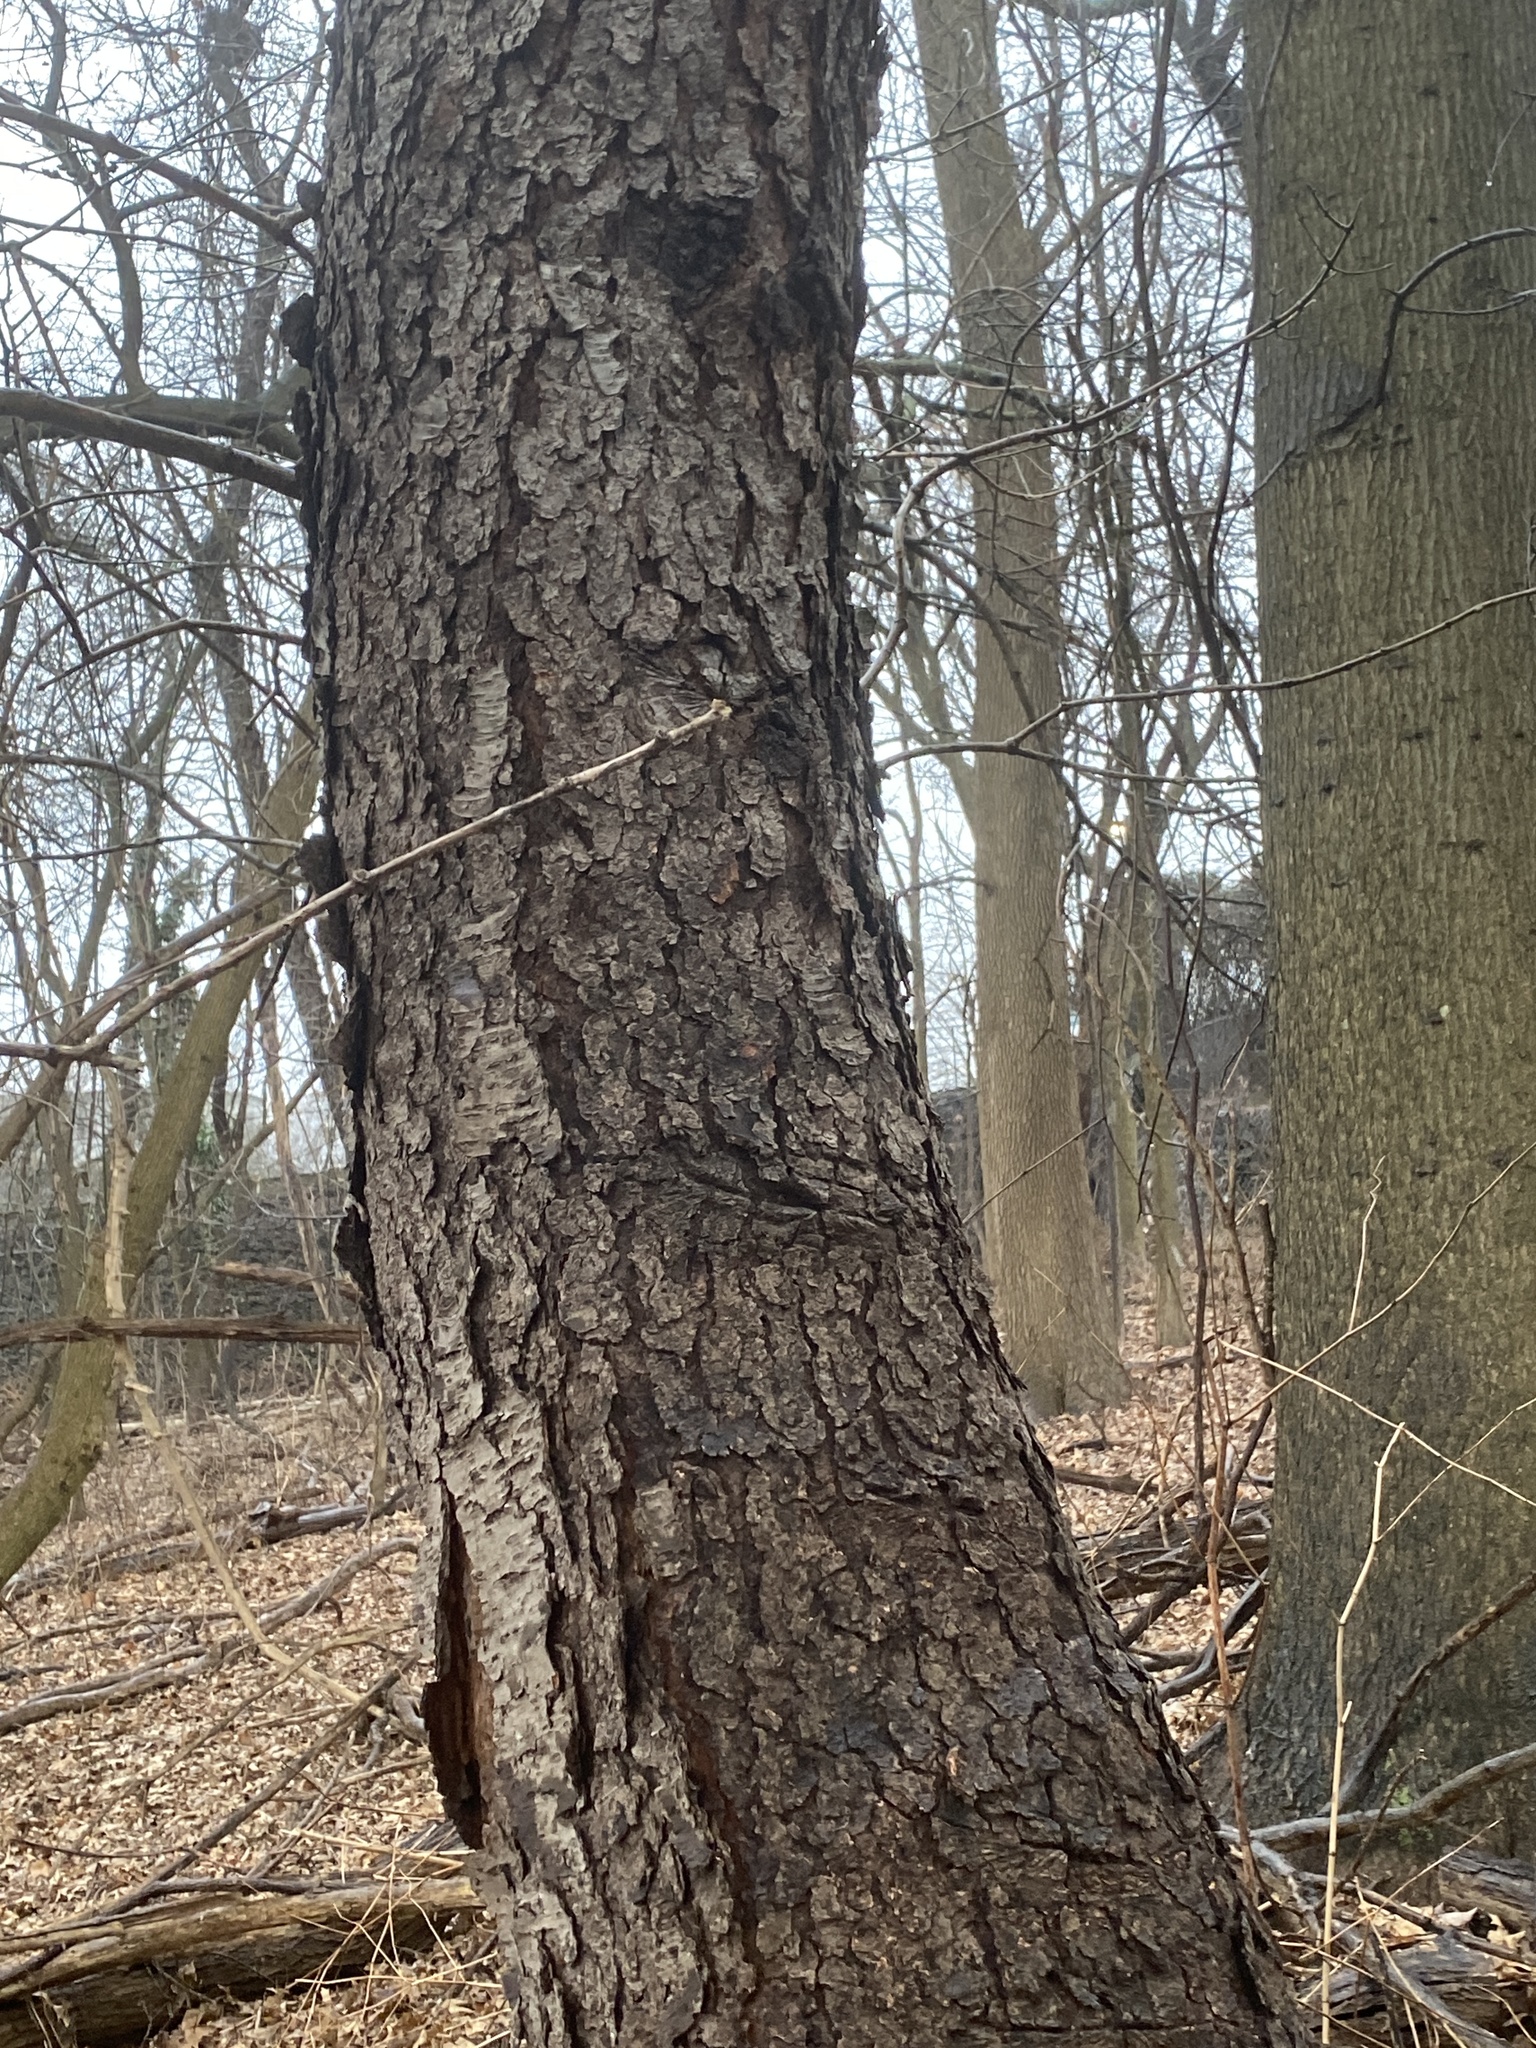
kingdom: Plantae
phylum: Tracheophyta
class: Magnoliopsida
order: Rosales
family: Rosaceae
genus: Prunus
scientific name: Prunus serotina
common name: Black cherry
